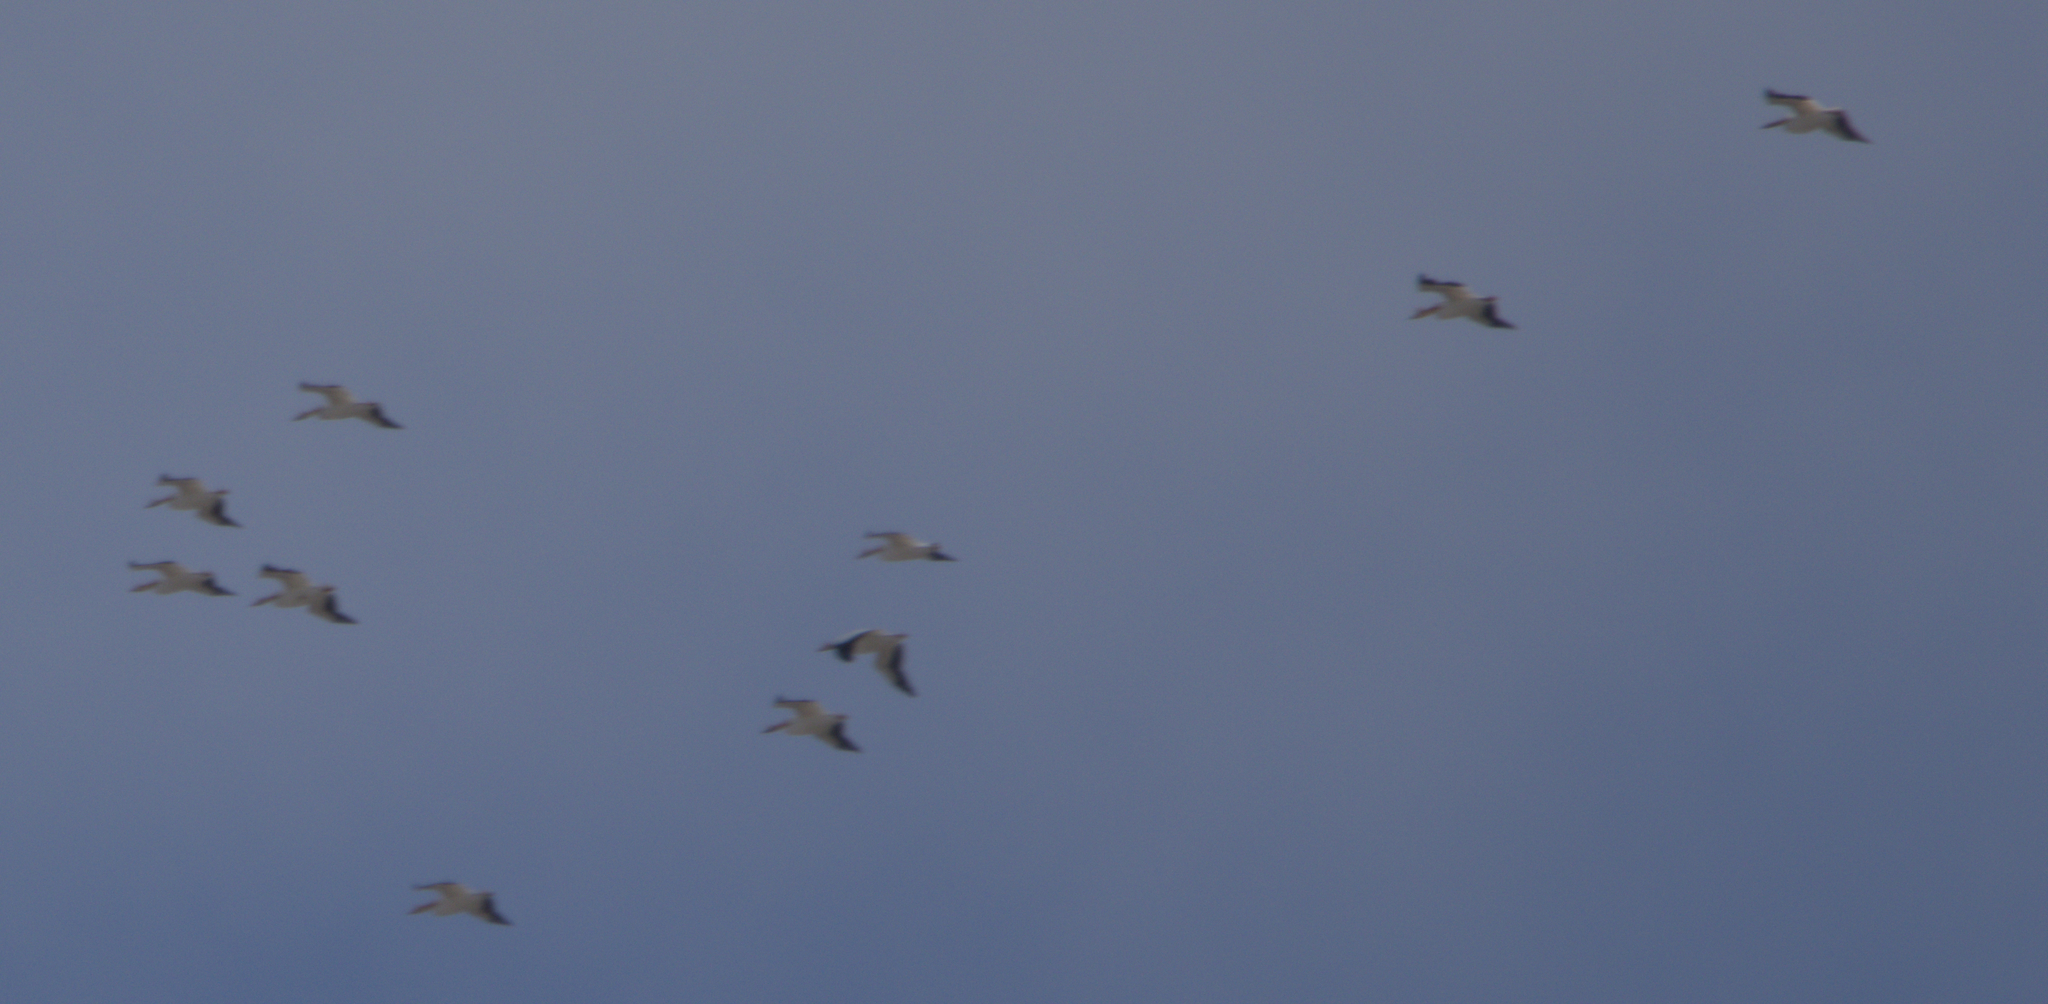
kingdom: Animalia
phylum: Chordata
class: Aves
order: Pelecaniformes
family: Pelecanidae
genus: Pelecanus
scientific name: Pelecanus erythrorhynchos
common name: American white pelican
